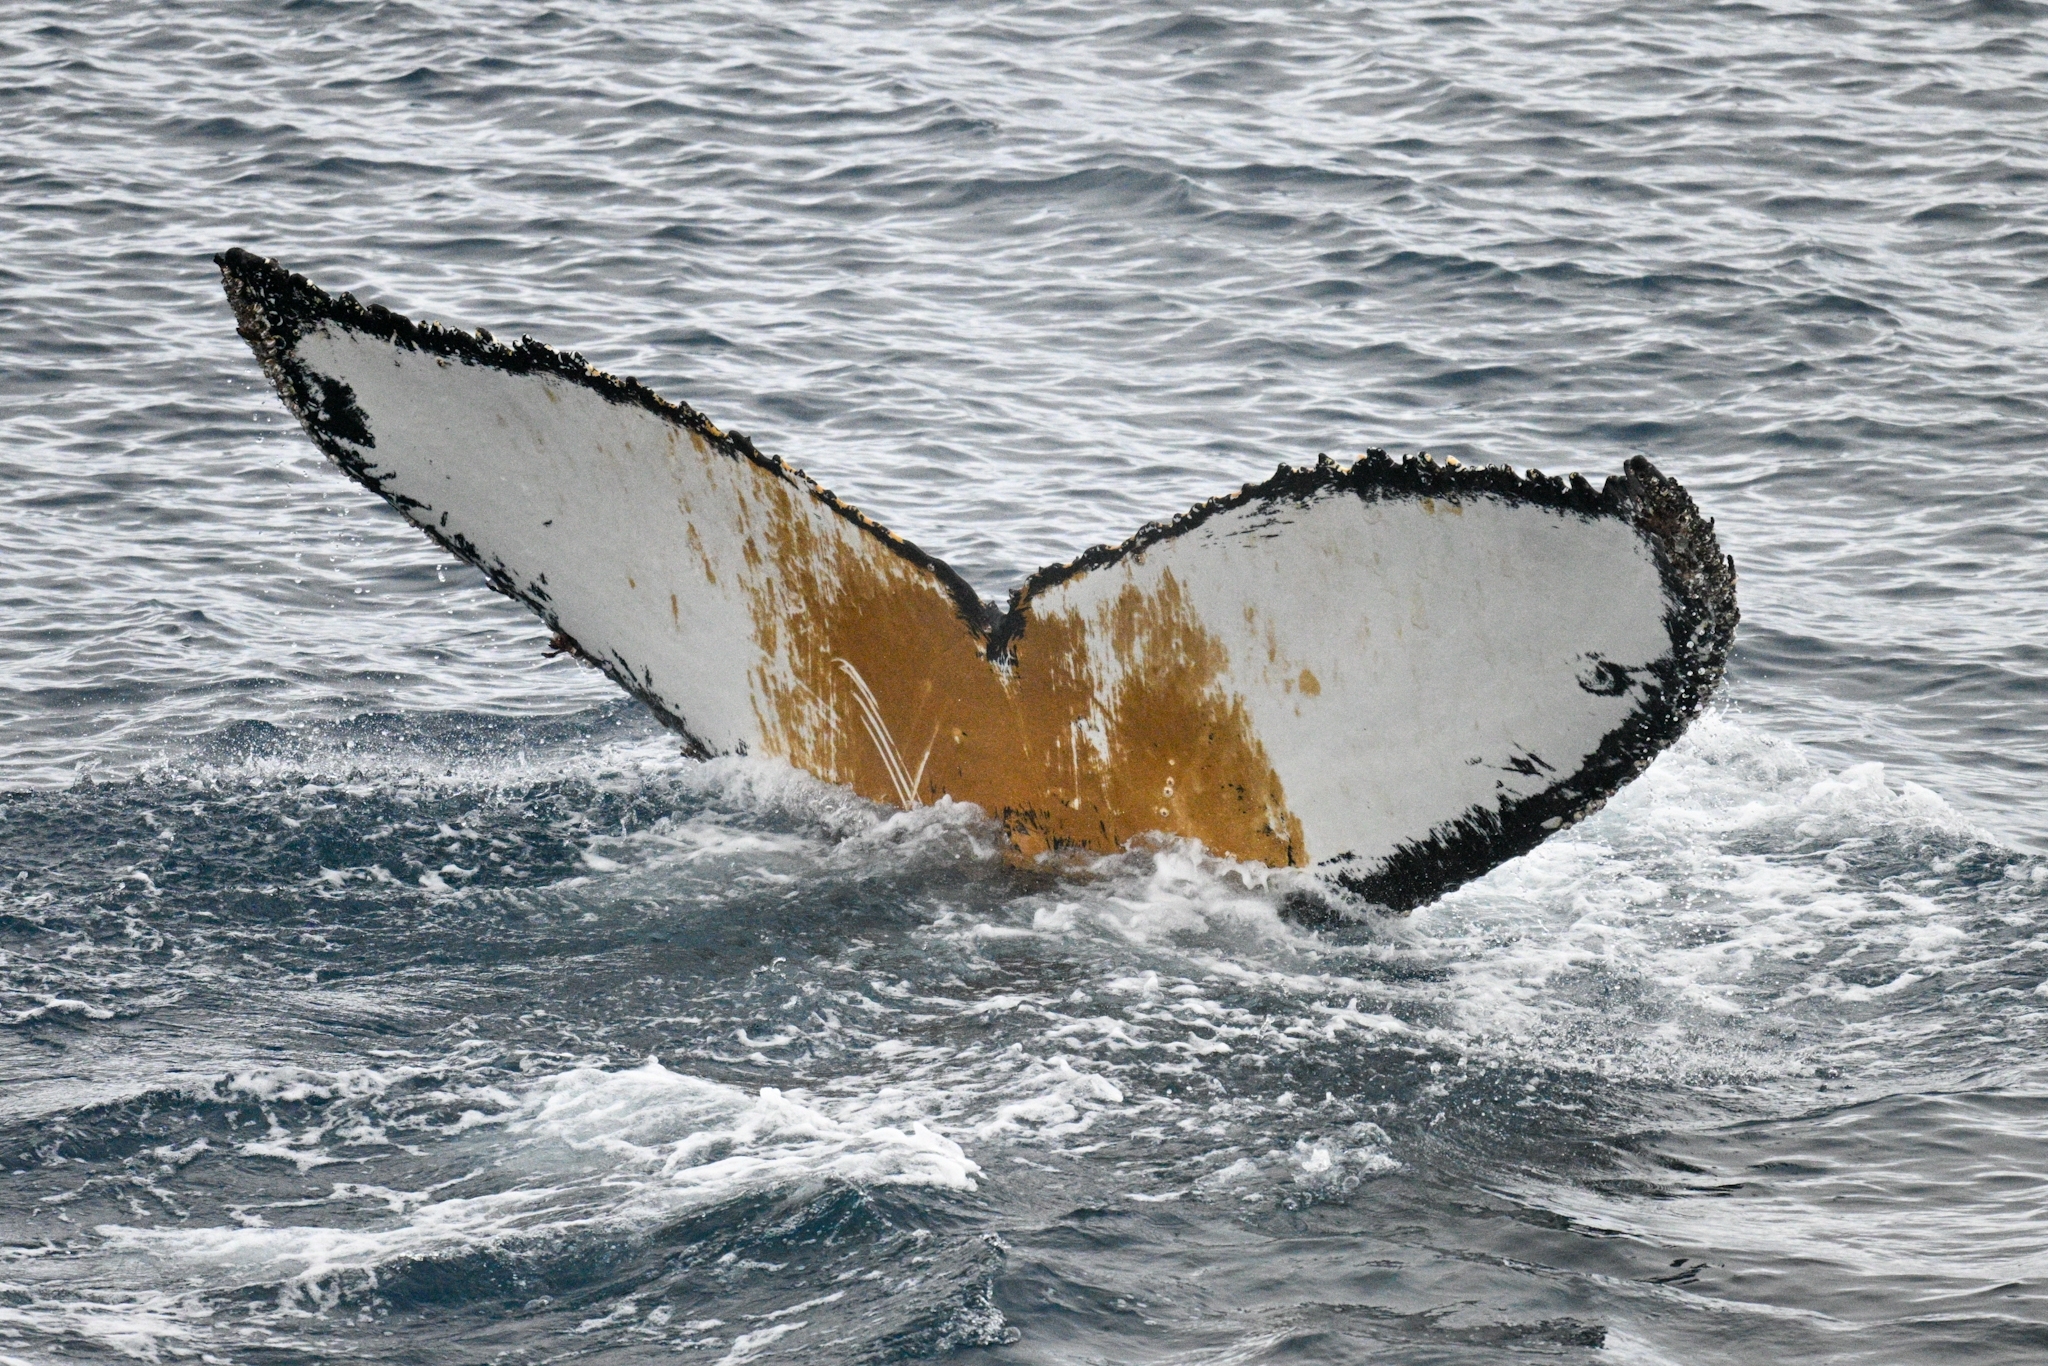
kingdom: Animalia
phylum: Chordata
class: Mammalia
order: Cetacea
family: Balaenopteridae
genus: Megaptera
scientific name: Megaptera novaeangliae
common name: Humpback whale
